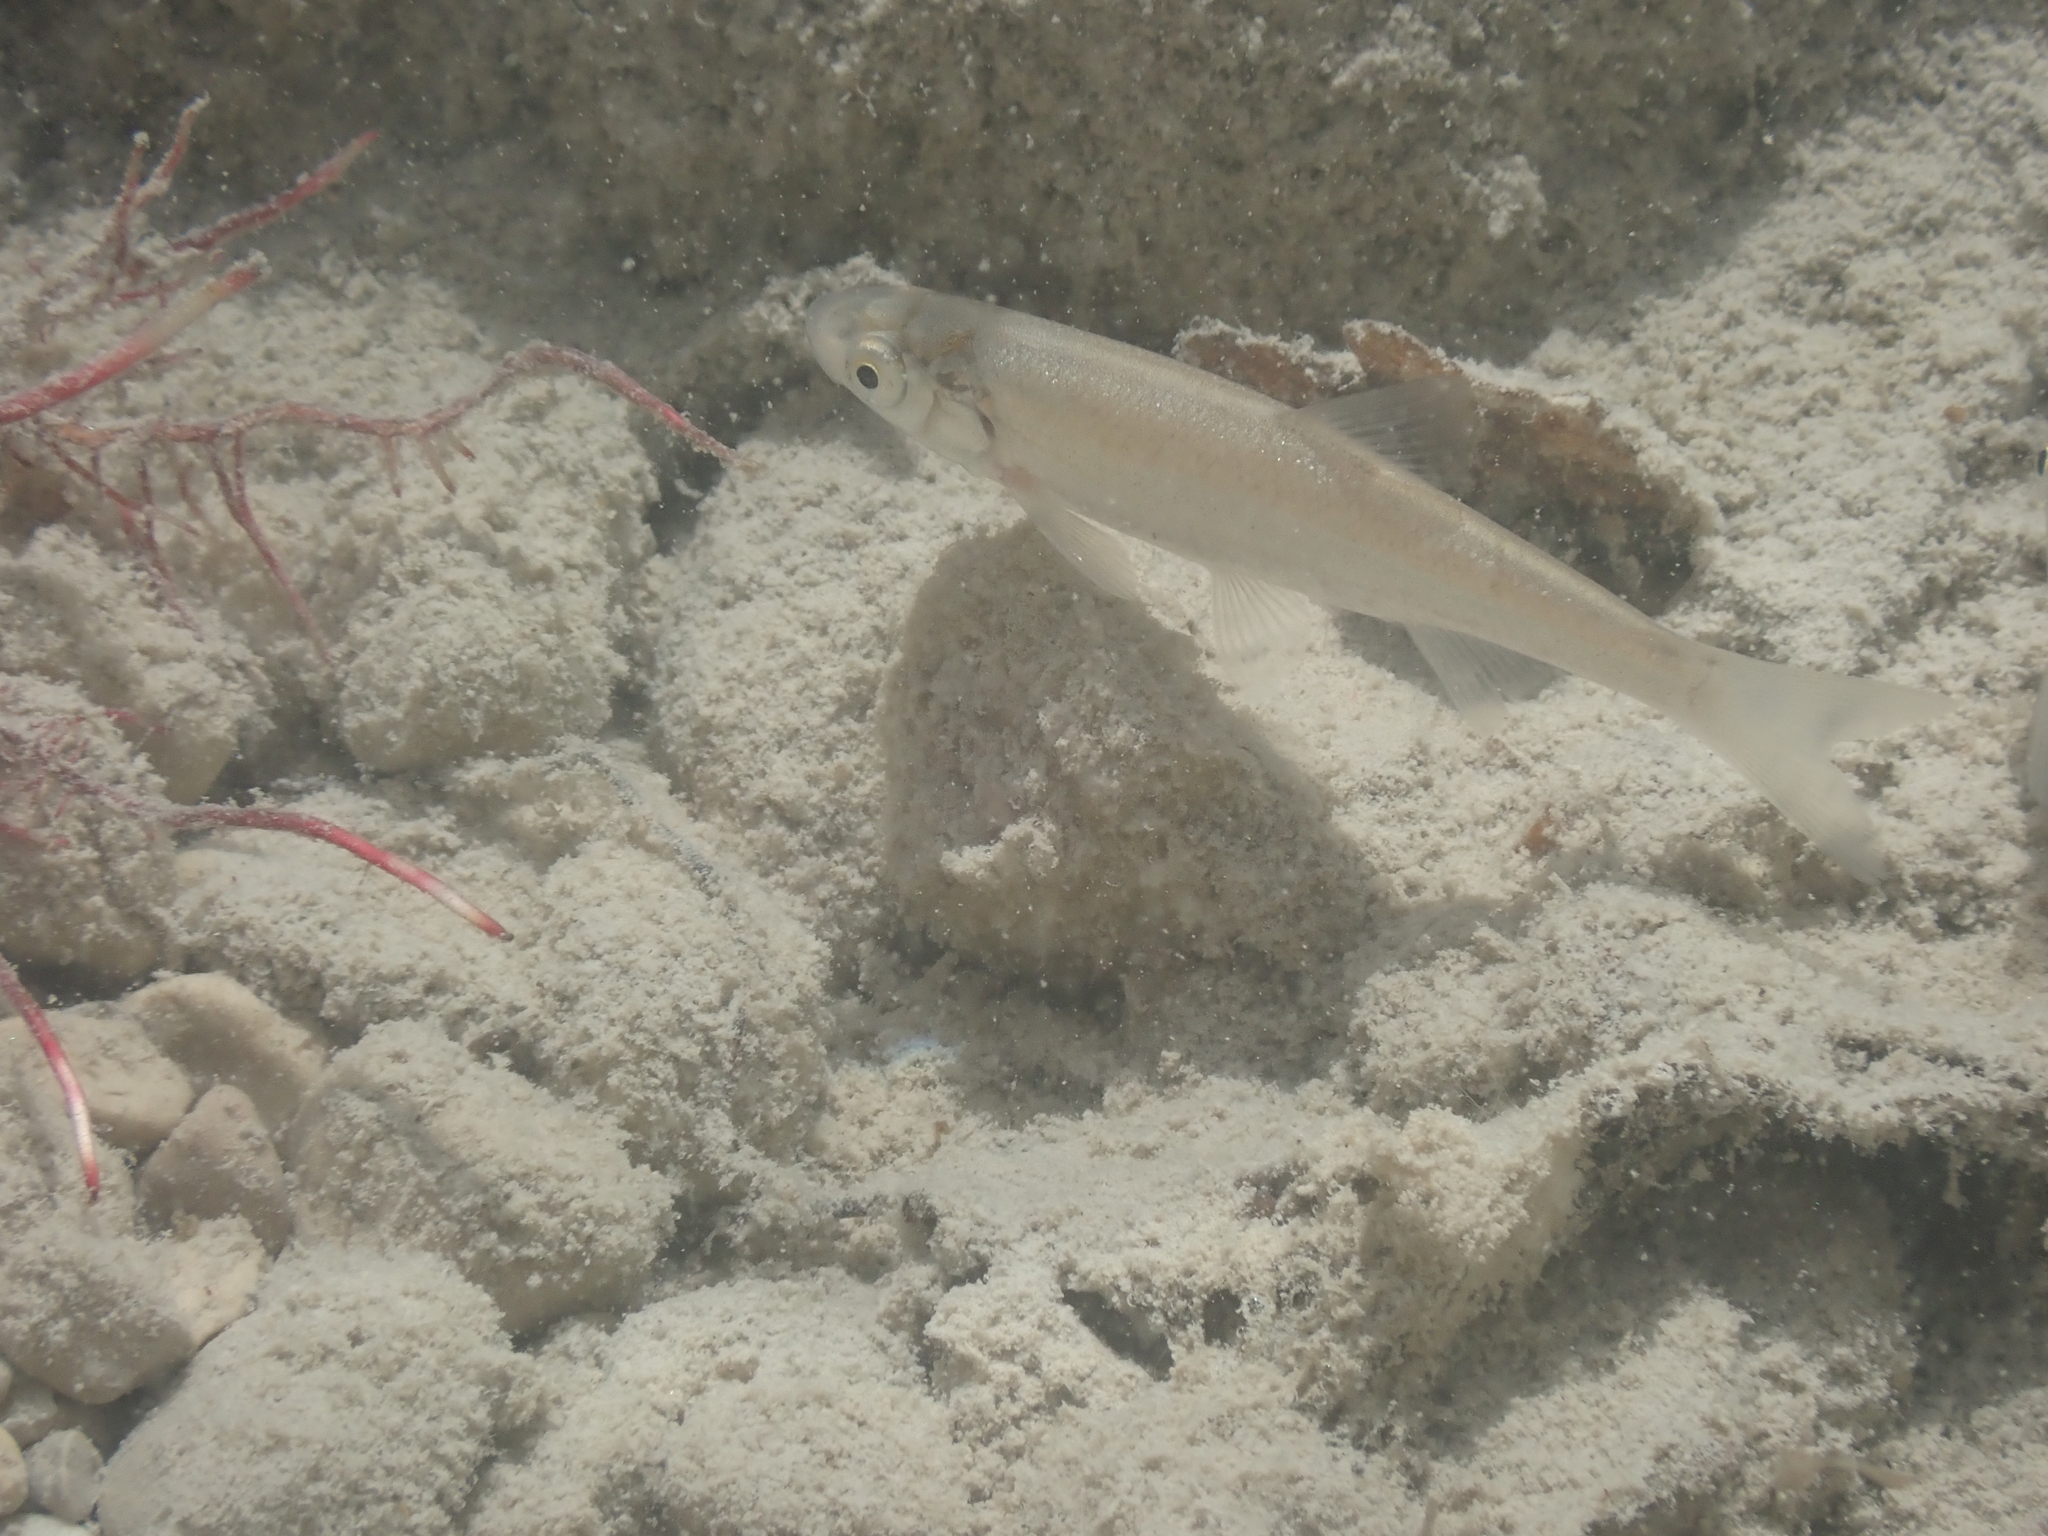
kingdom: Animalia
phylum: Chordata
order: Cypriniformes
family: Cyprinidae
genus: Telestes
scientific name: Telestes souffia
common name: Souffia
